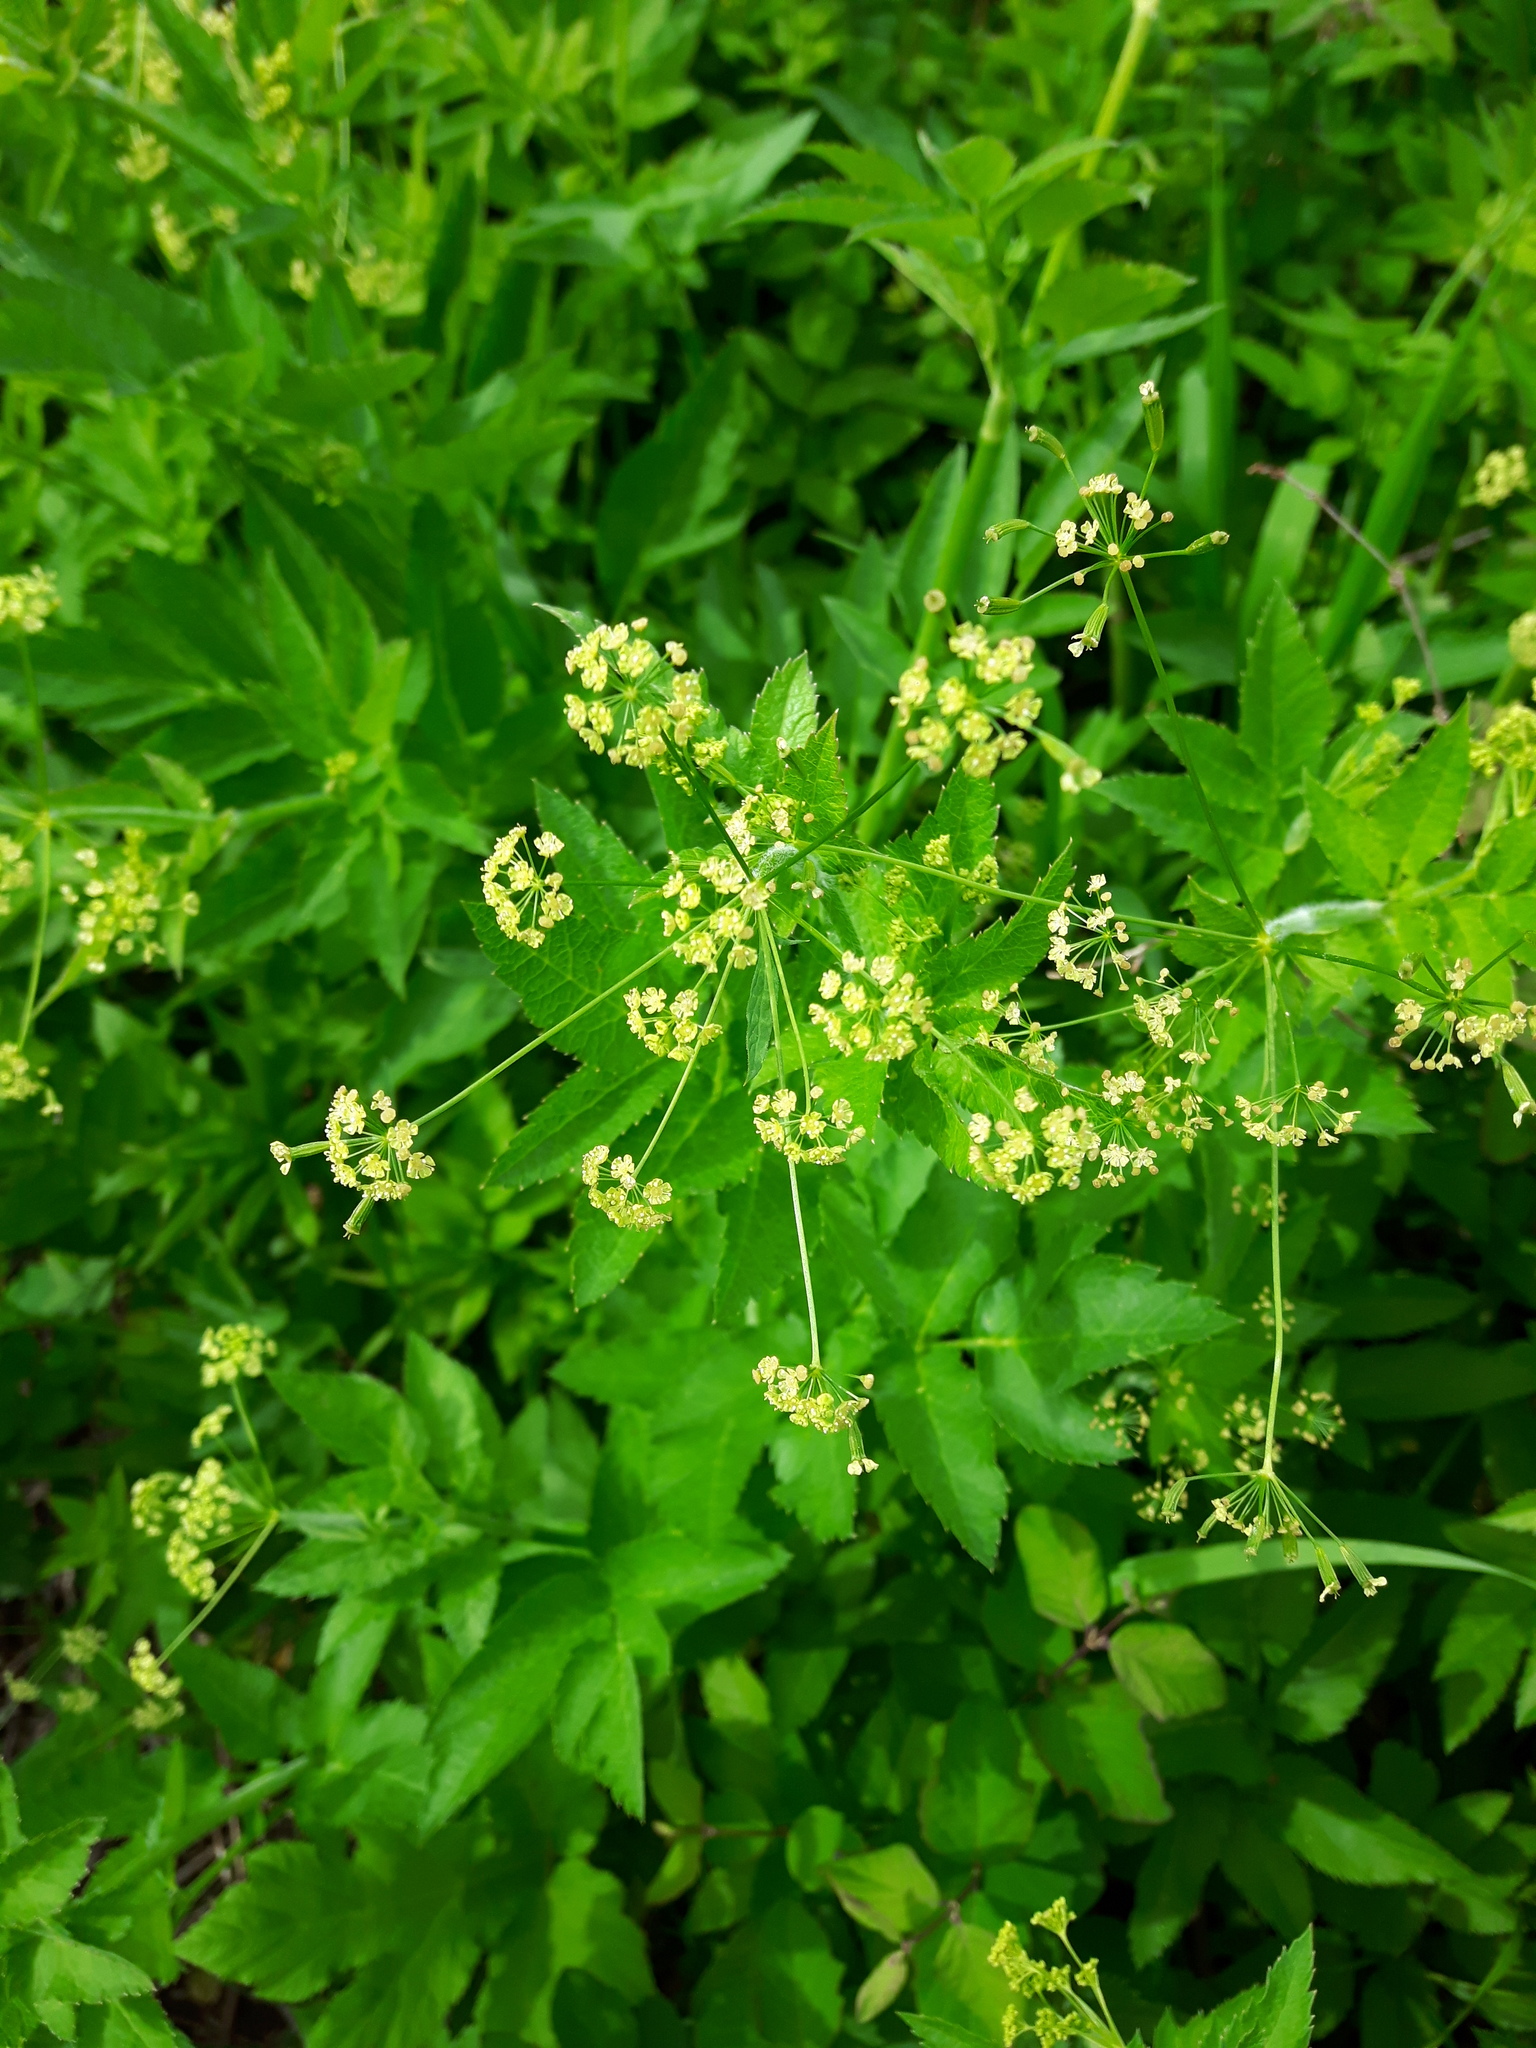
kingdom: Plantae
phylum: Tracheophyta
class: Magnoliopsida
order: Apiales
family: Apiaceae
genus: Osmorhiza
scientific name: Osmorhiza occidentalis
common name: Western sweet cicely
